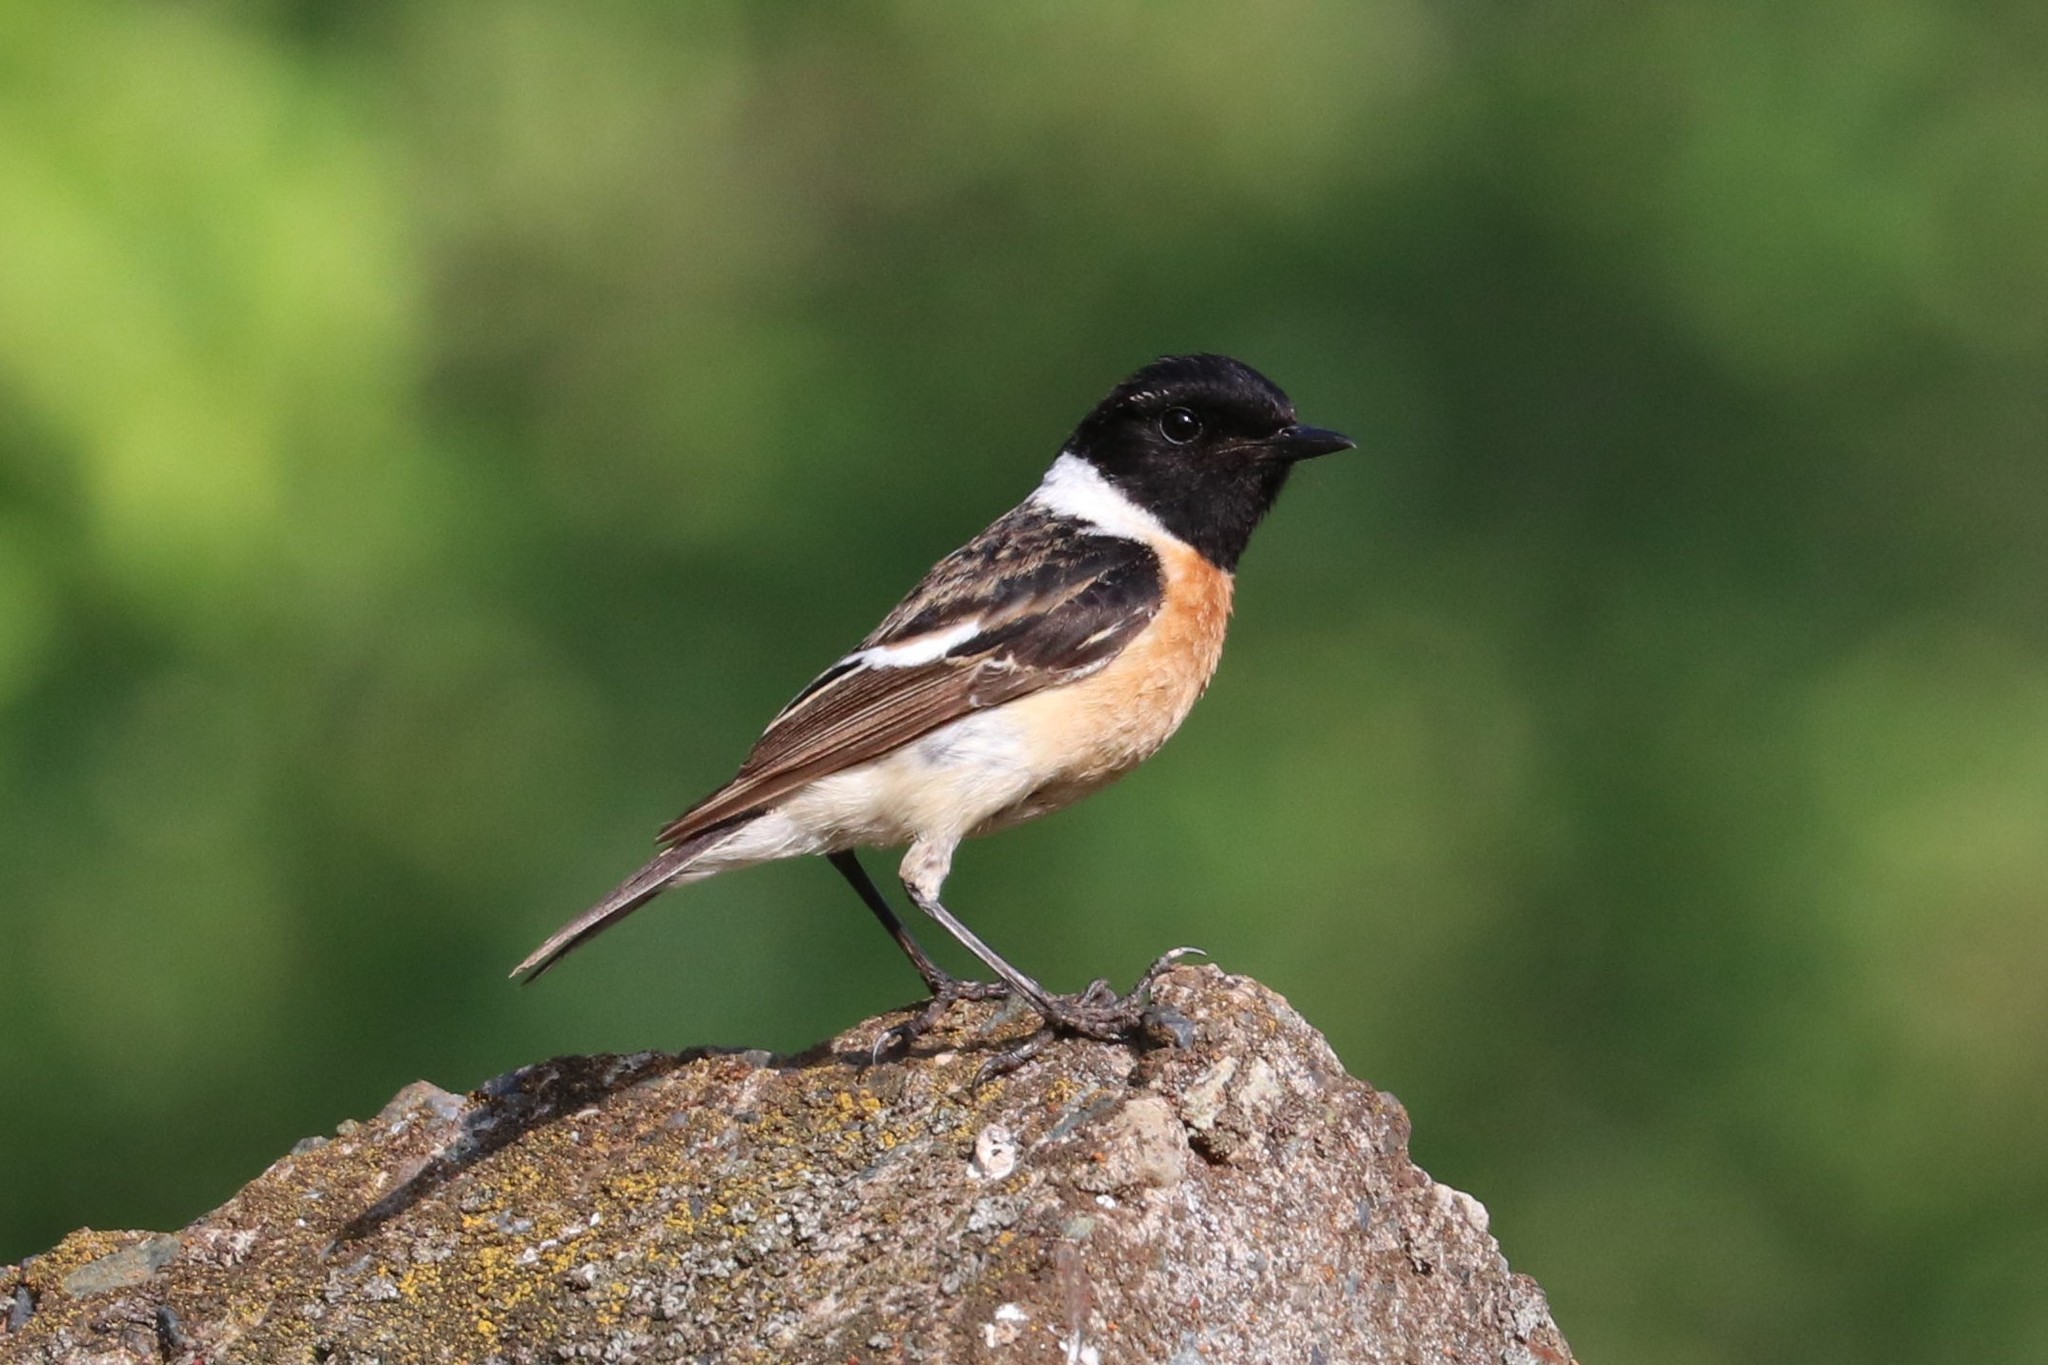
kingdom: Animalia
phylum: Chordata
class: Aves
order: Passeriformes
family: Muscicapidae
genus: Saxicola
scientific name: Saxicola maurus
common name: Siberian stonechat
